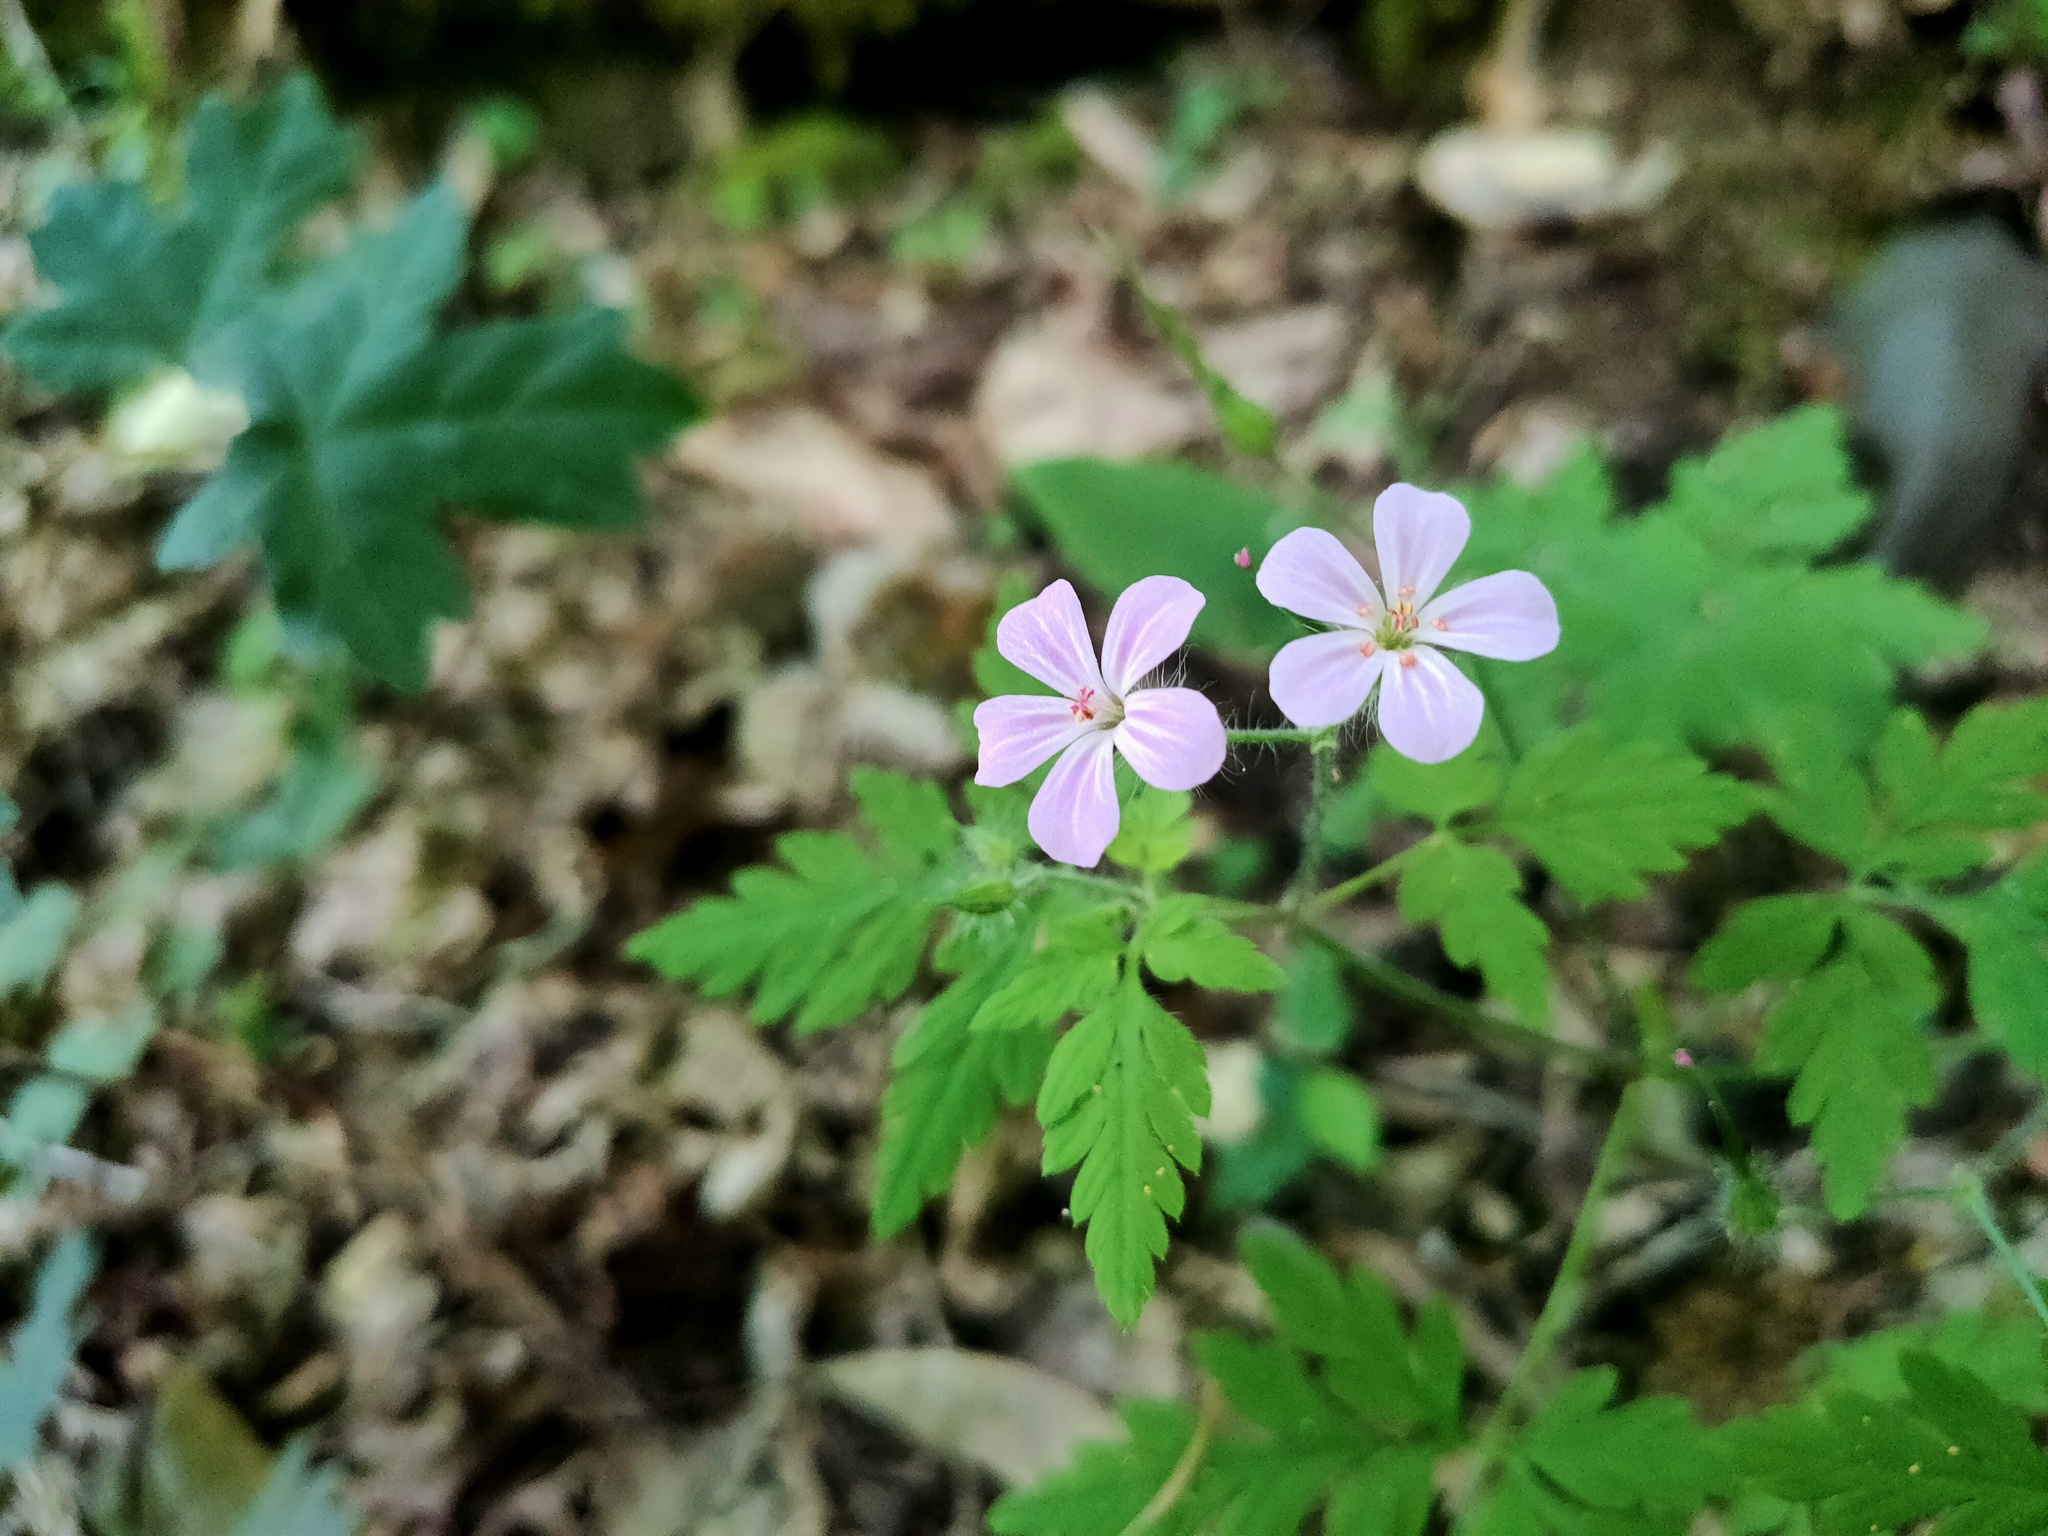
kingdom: Plantae
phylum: Tracheophyta
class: Magnoliopsida
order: Geraniales
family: Geraniaceae
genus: Geranium
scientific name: Geranium robertianum
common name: Herb-robert
